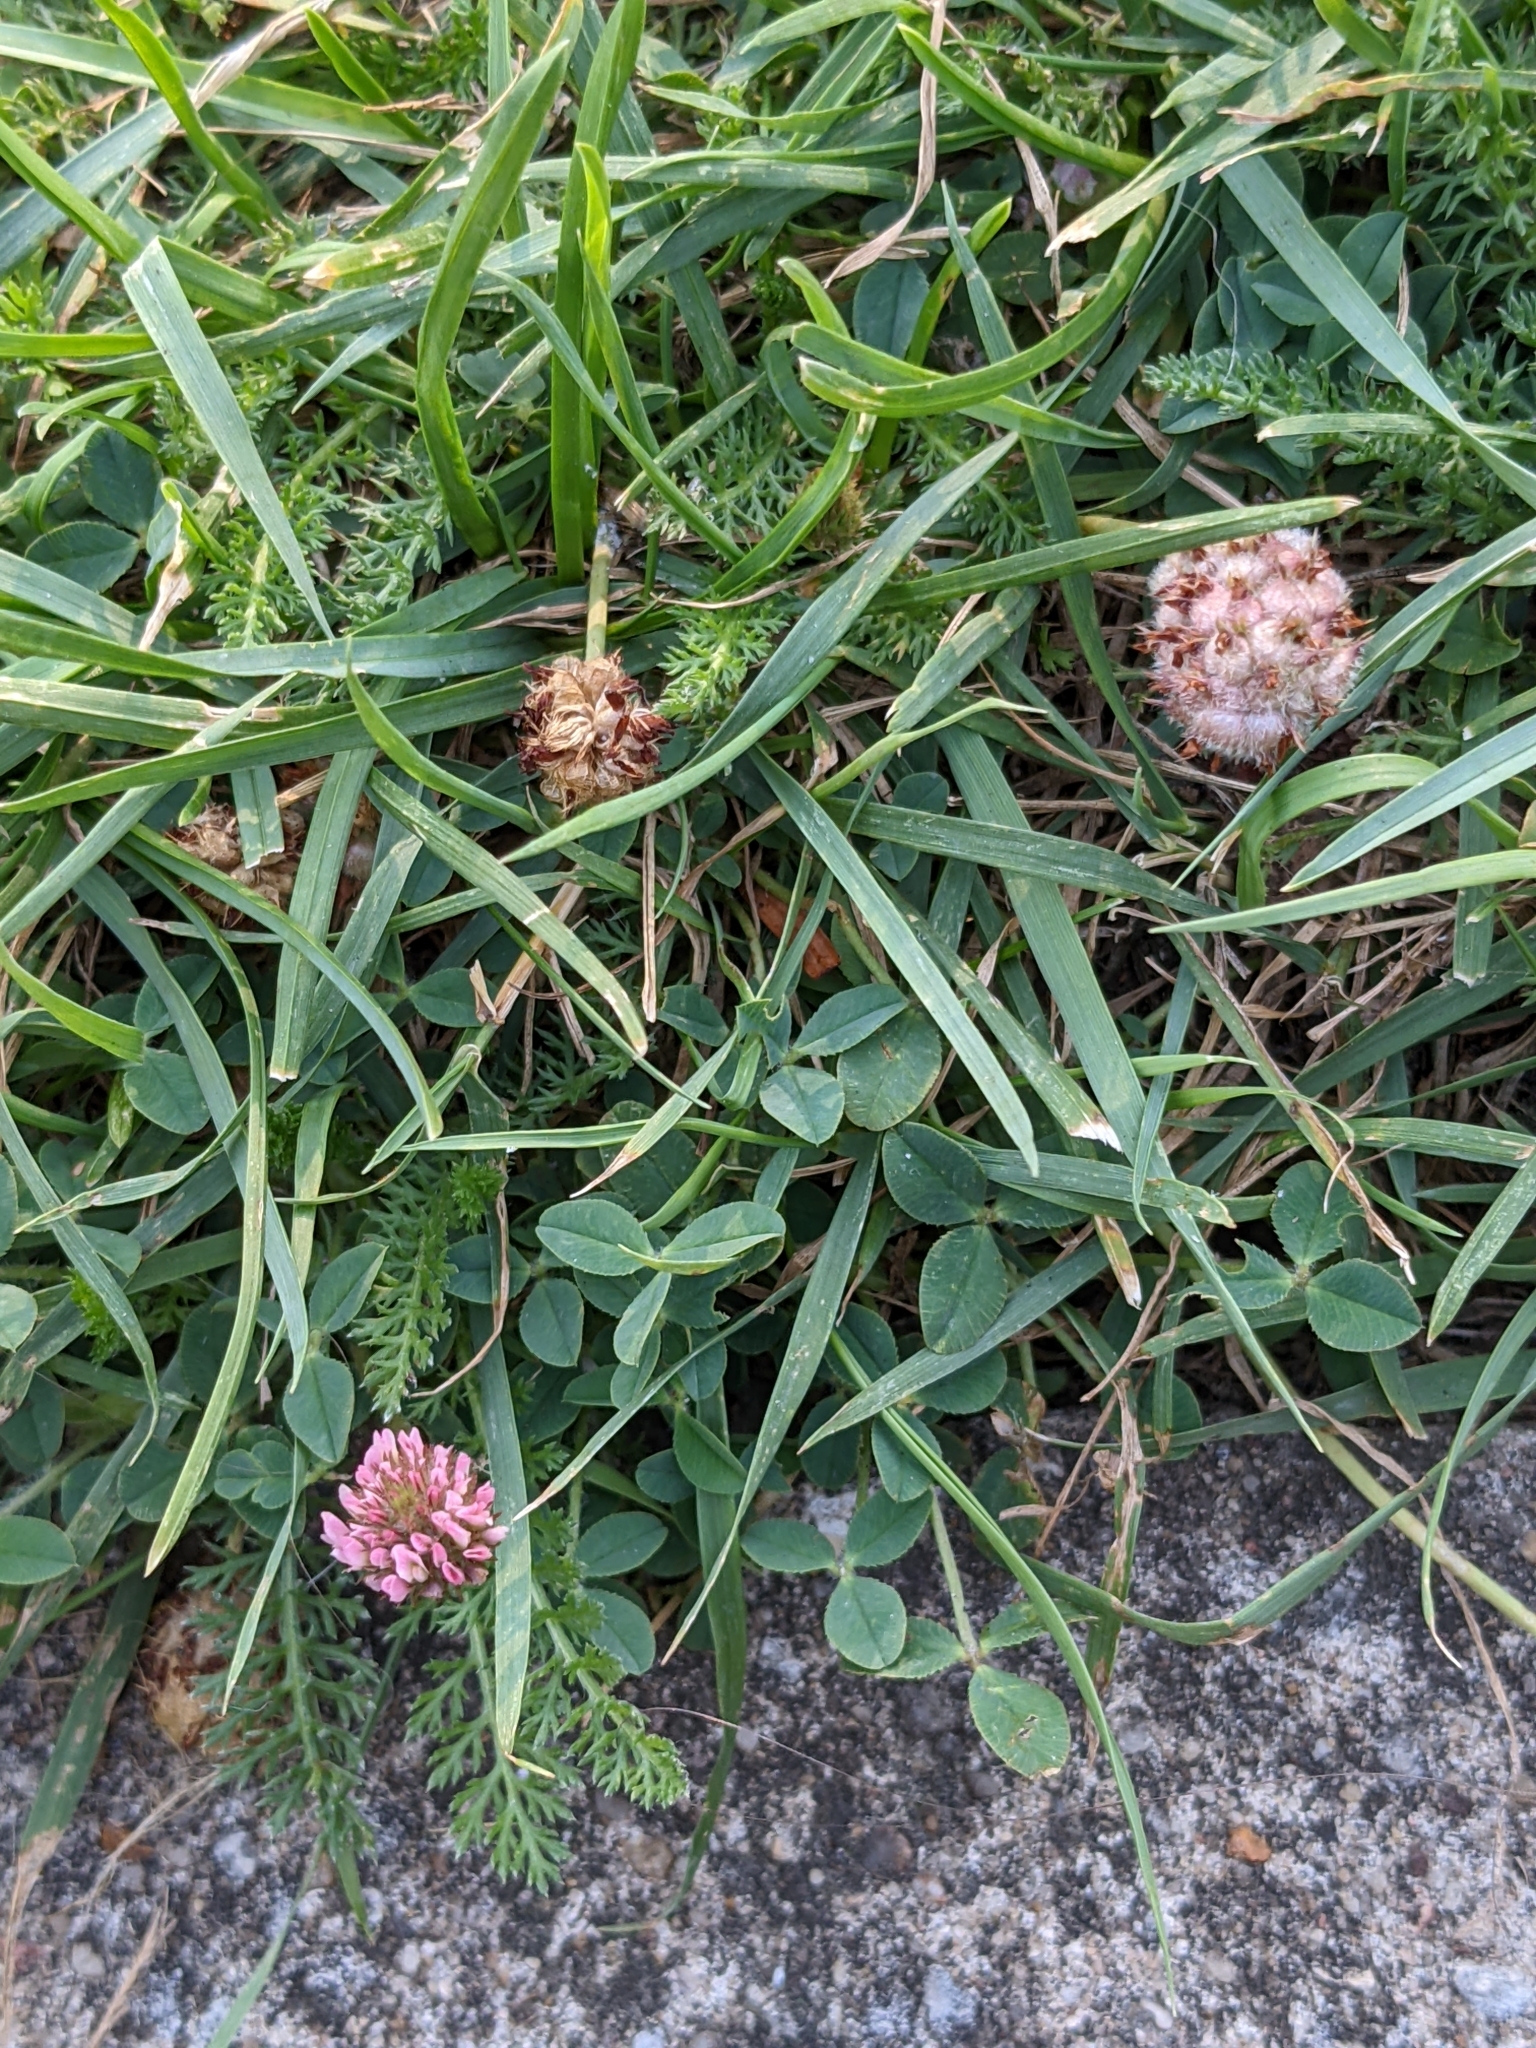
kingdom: Plantae
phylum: Tracheophyta
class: Magnoliopsida
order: Fabales
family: Fabaceae
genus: Trifolium
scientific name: Trifolium fragiferum
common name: Strawberry clover
